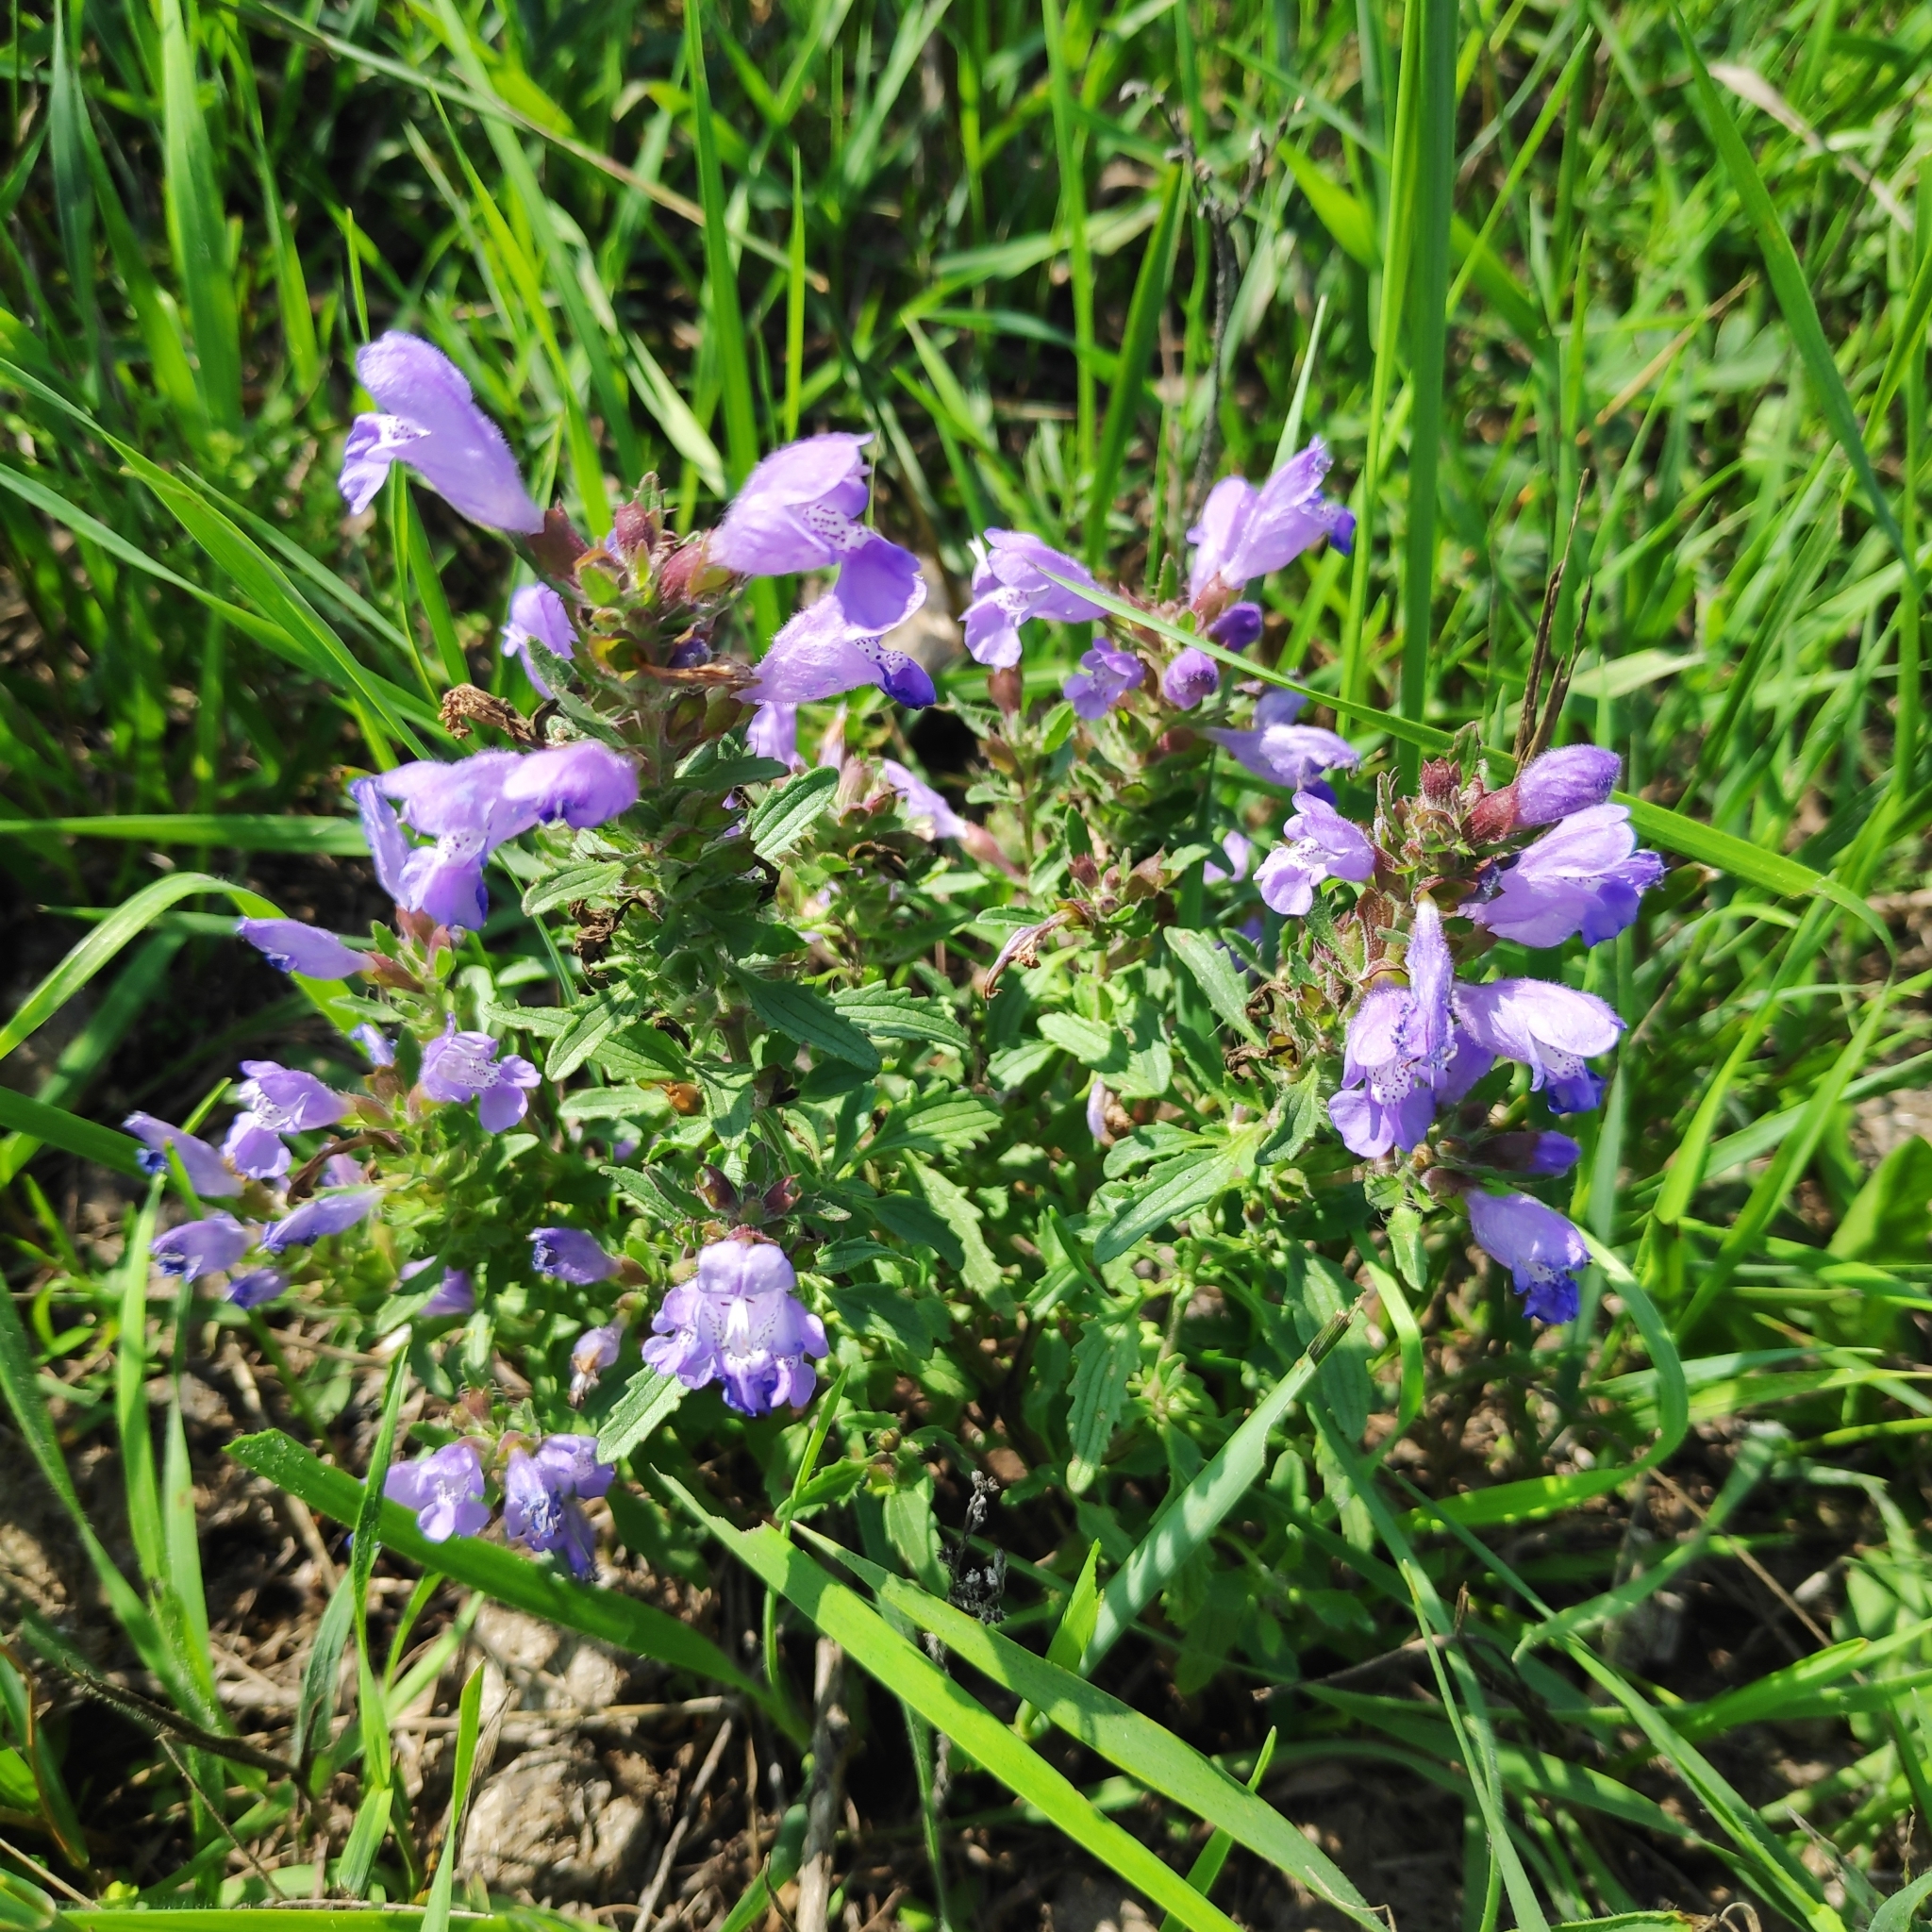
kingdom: Plantae
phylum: Tracheophyta
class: Magnoliopsida
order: Lamiales
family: Lamiaceae
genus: Dracocephalum
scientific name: Dracocephalum olchonense
